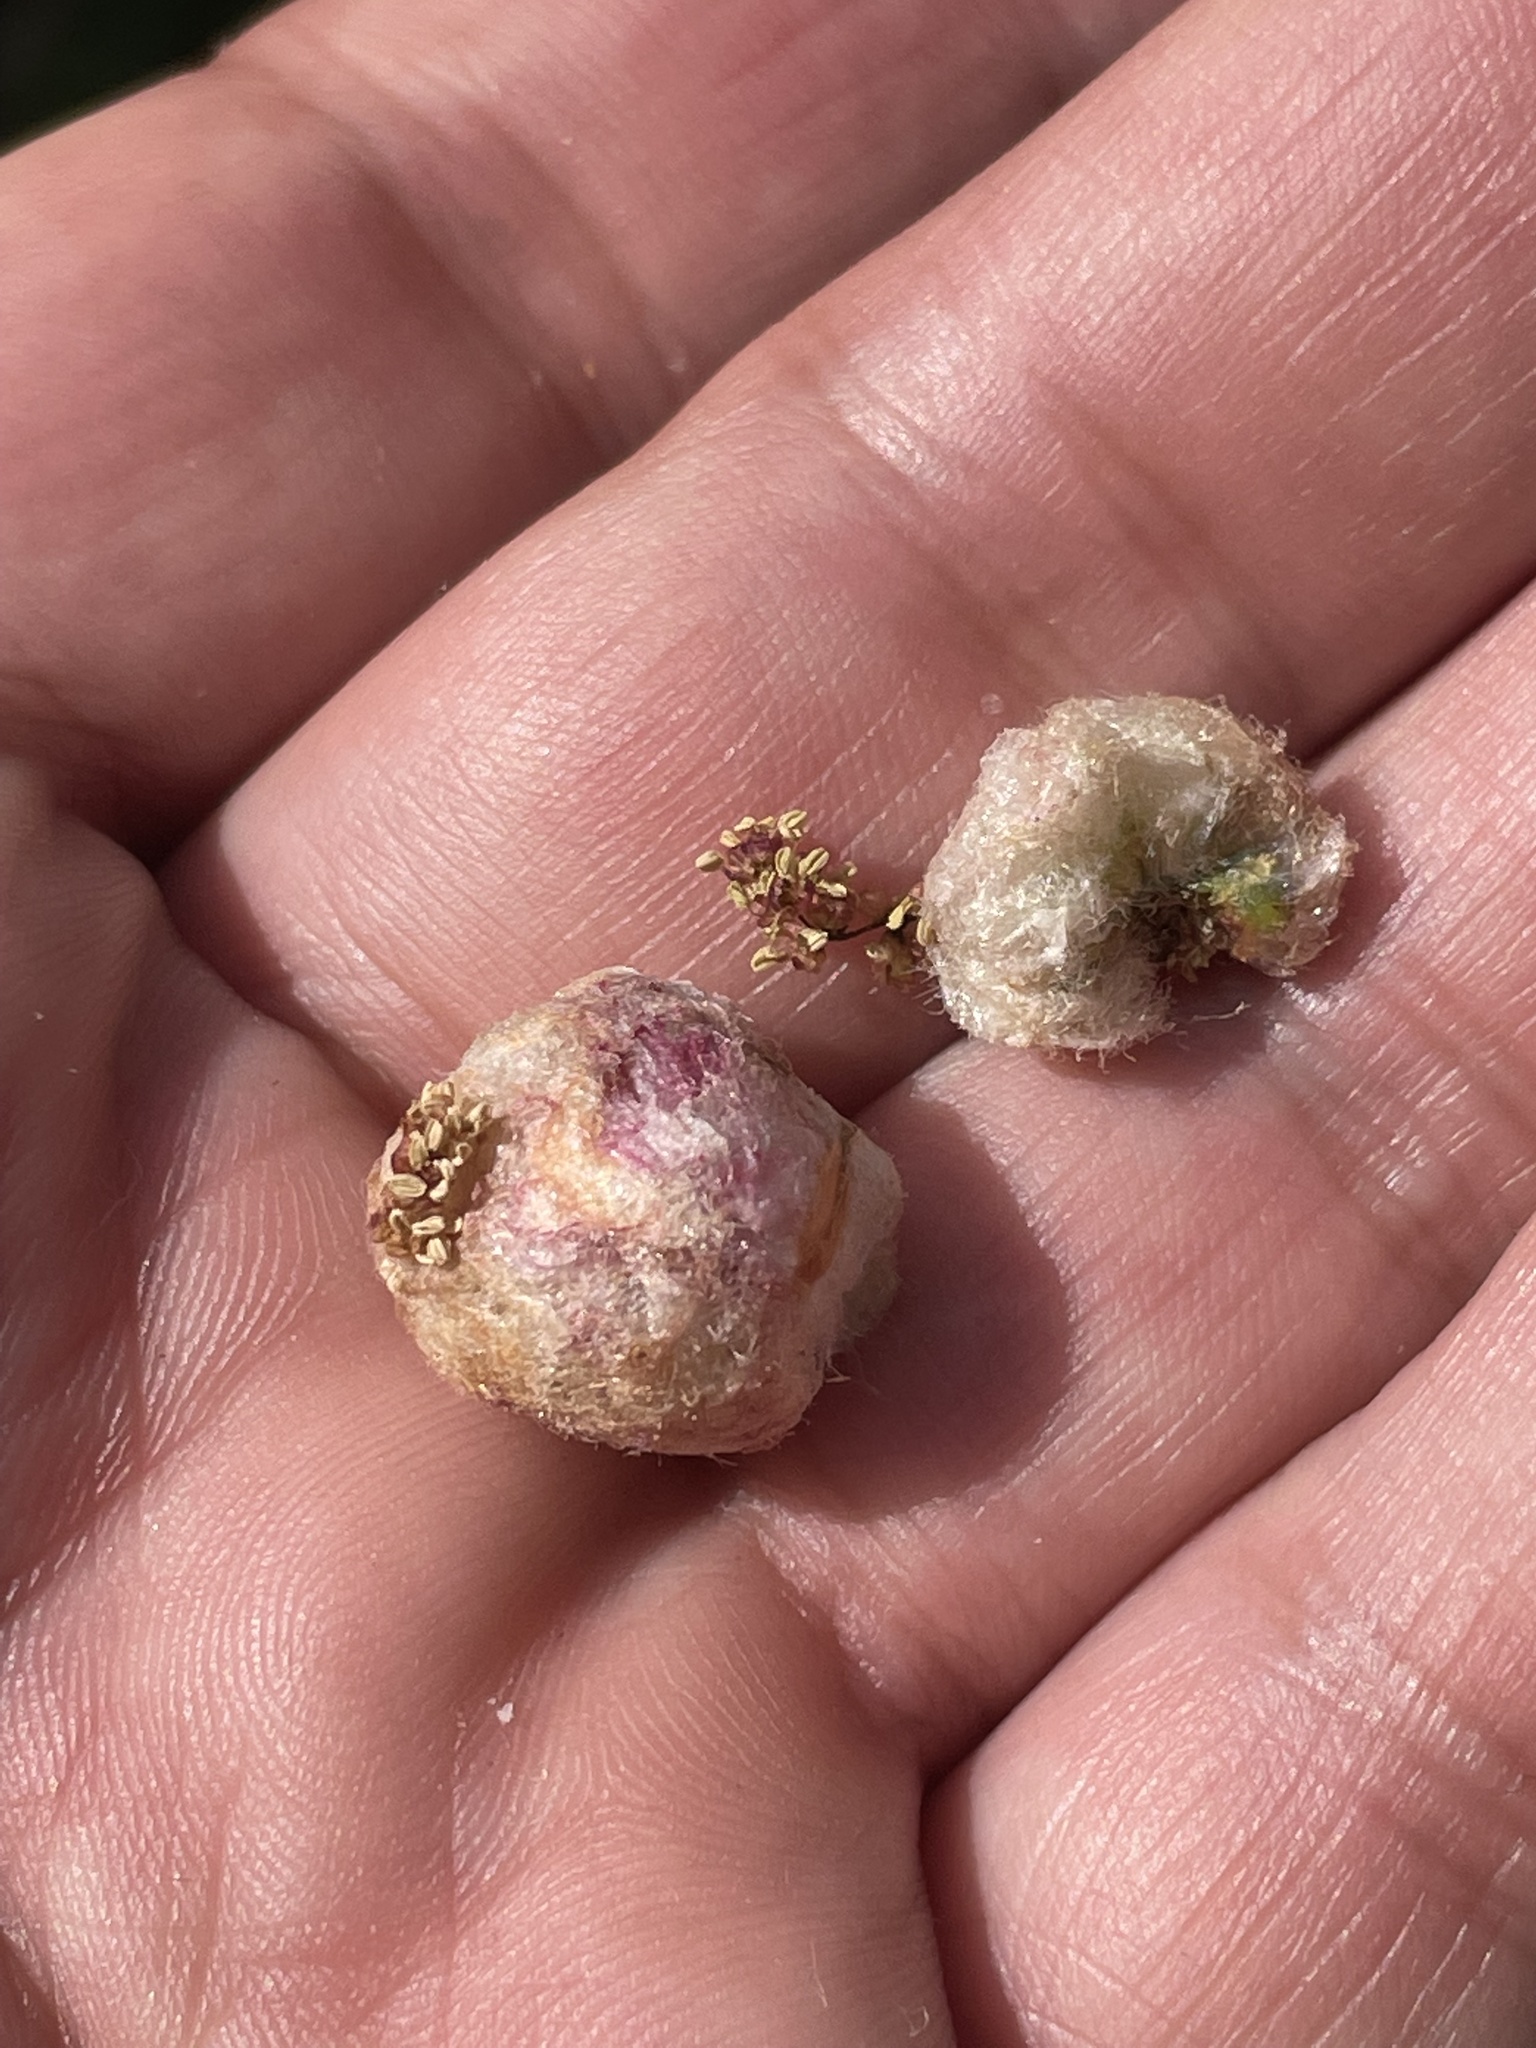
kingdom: Animalia
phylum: Arthropoda
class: Insecta
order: Hymenoptera
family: Cynipidae
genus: Callirhytis
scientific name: Callirhytis
